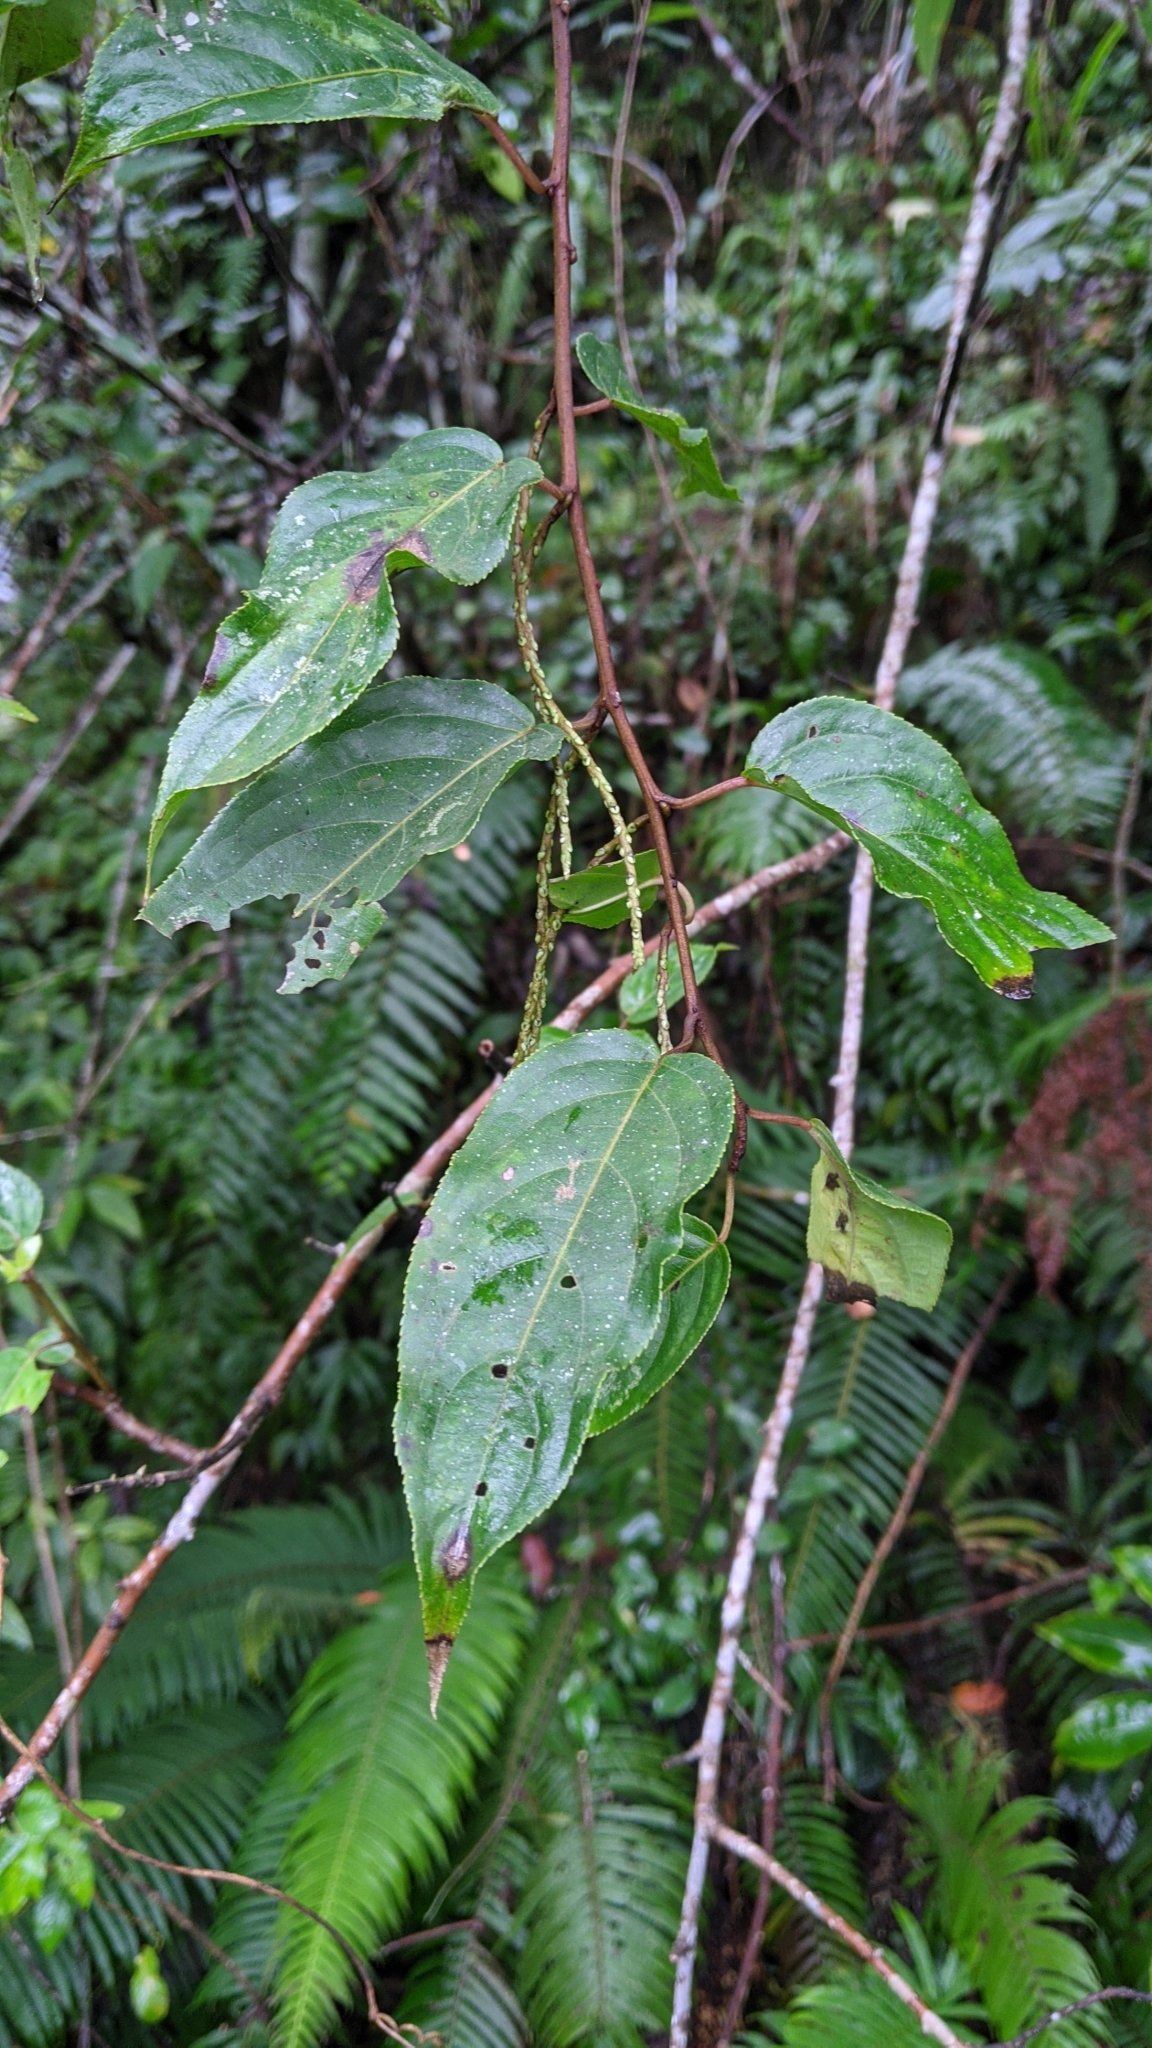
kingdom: Plantae
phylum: Tracheophyta
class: Magnoliopsida
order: Crossosomatales
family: Stachyuraceae
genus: Stachyurus
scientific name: Stachyurus himalaicus
